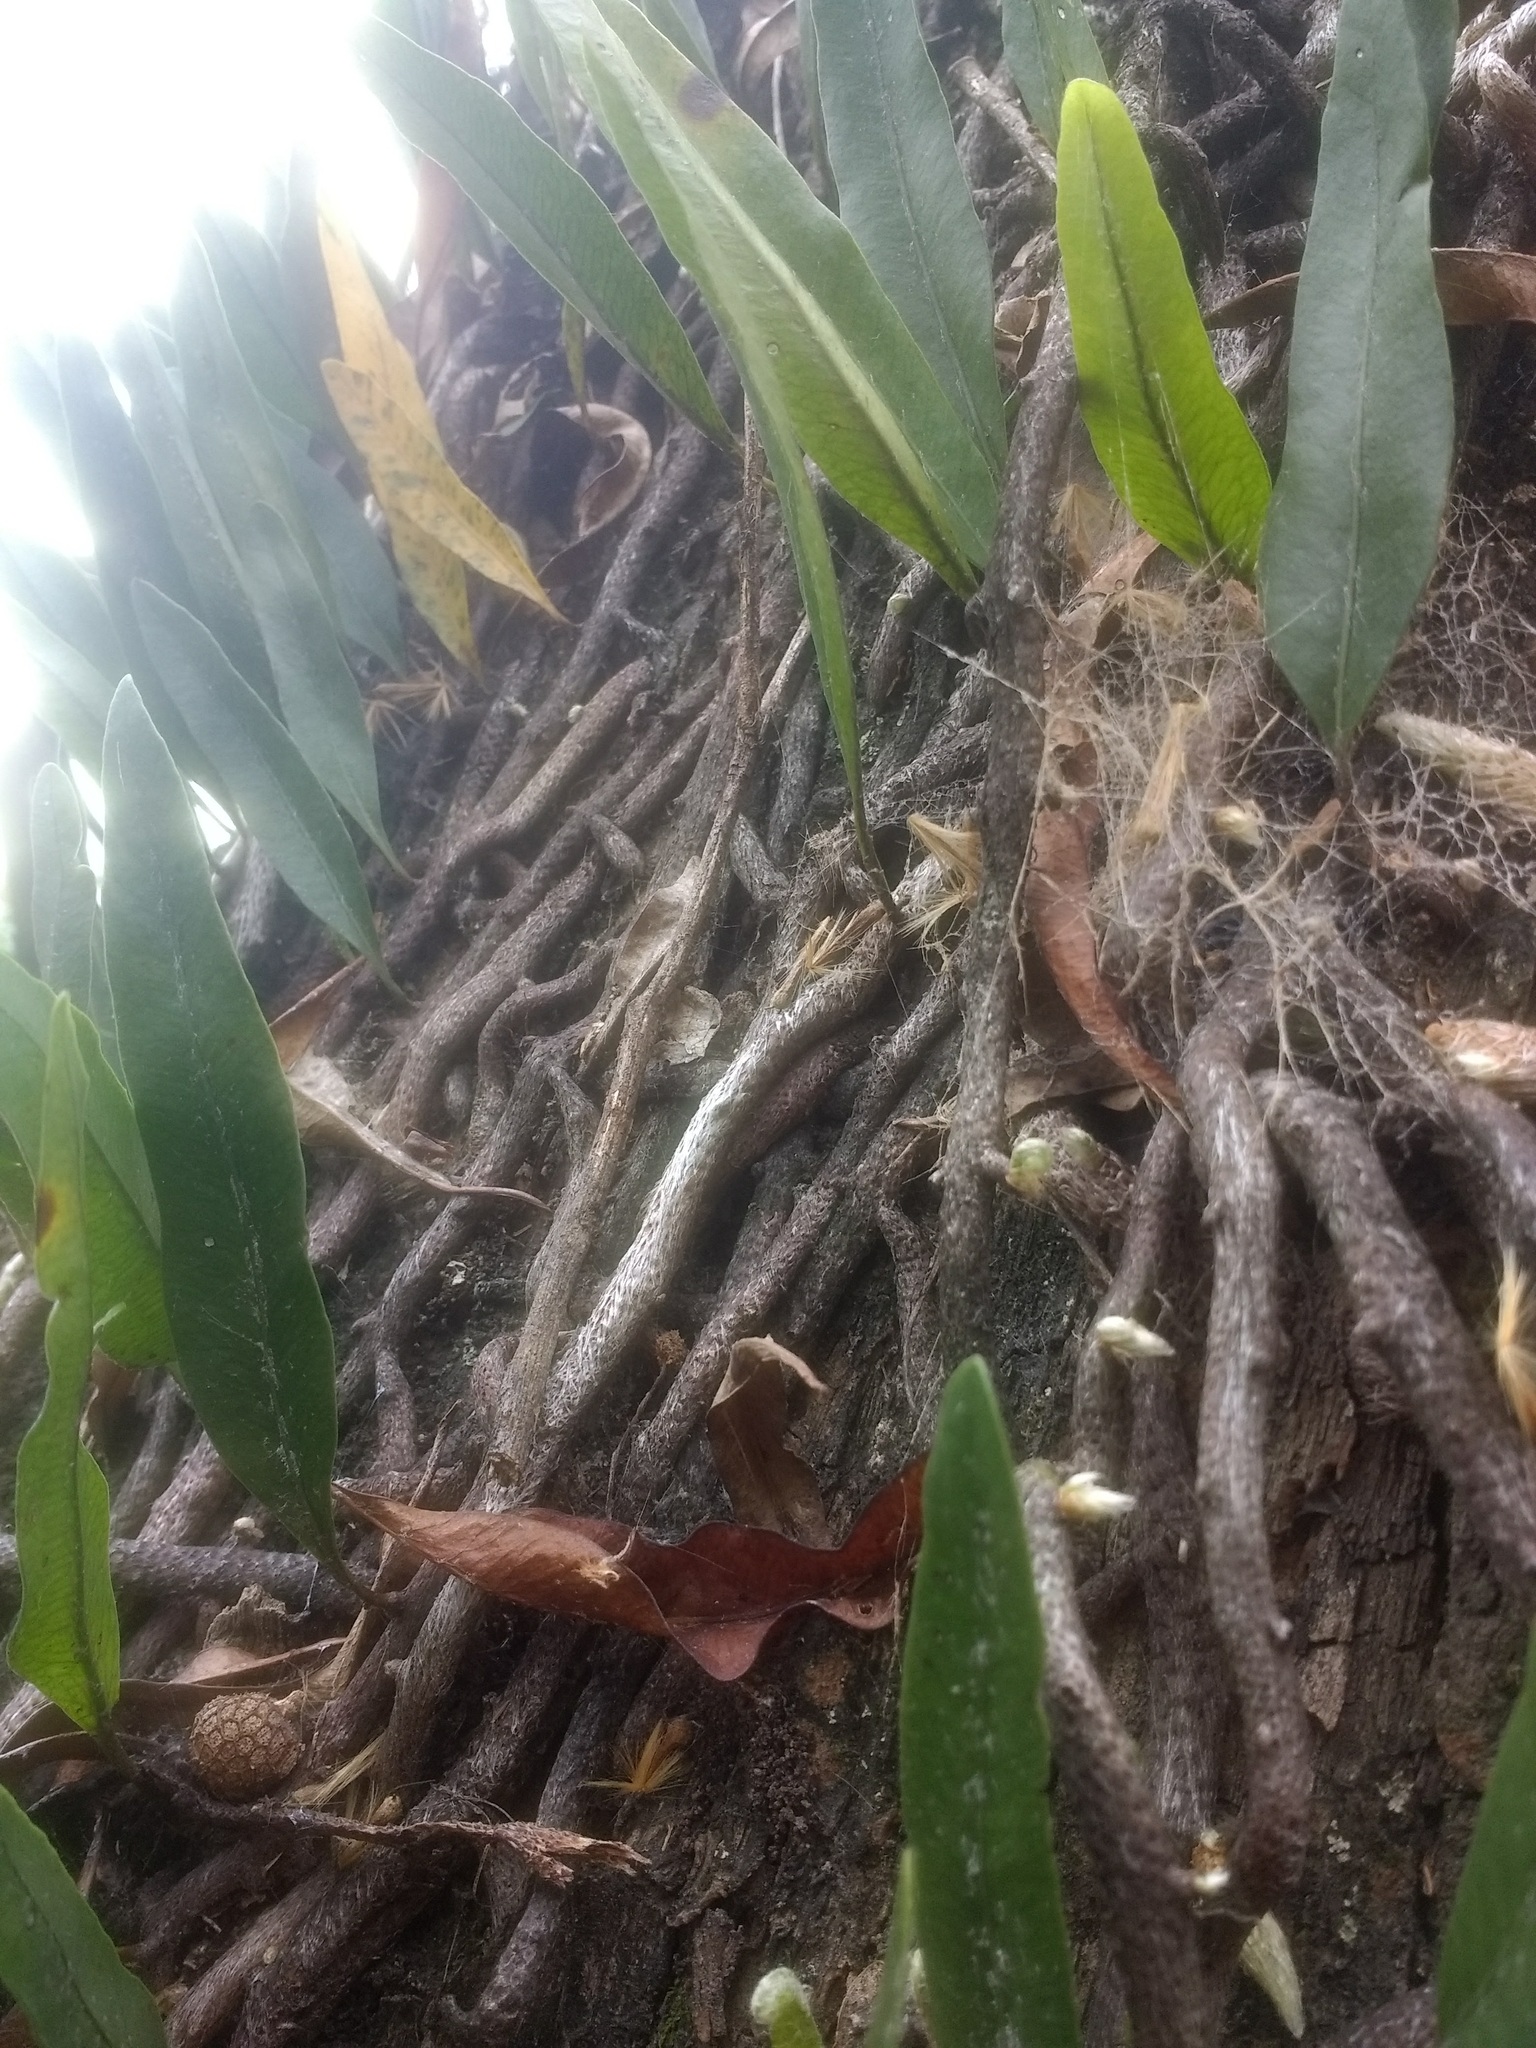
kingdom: Plantae
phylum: Tracheophyta
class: Polypodiopsida
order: Polypodiales
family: Polypodiaceae
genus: Microgramma
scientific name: Microgramma mortoniana
